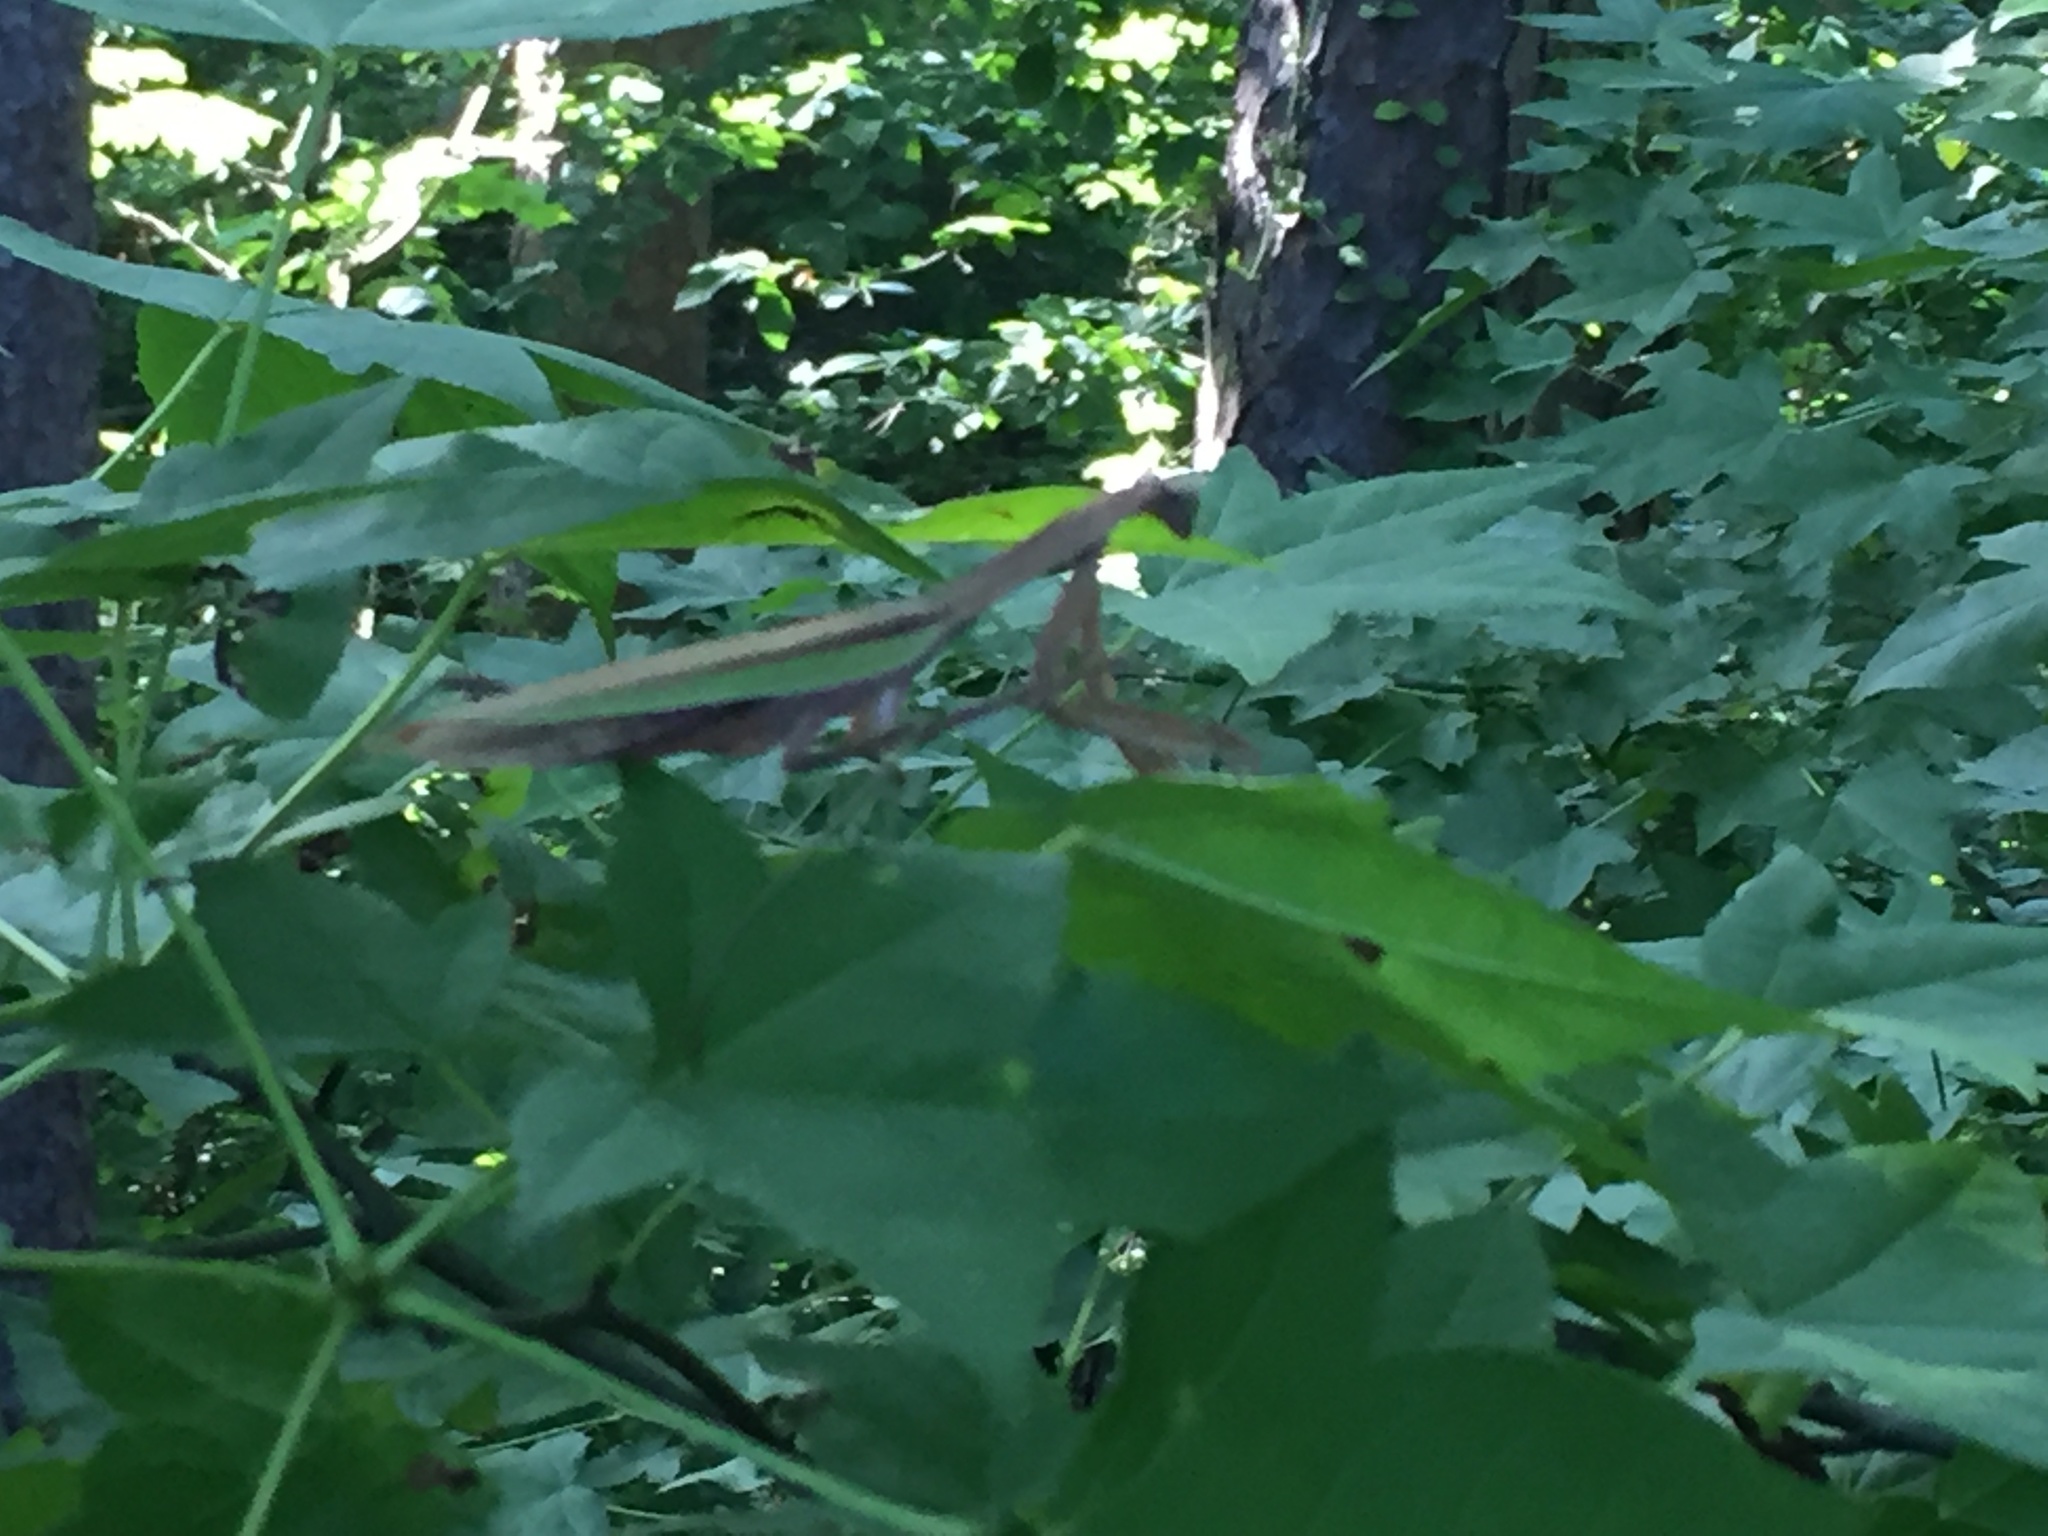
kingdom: Animalia
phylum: Arthropoda
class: Insecta
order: Mantodea
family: Mantidae
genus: Tenodera
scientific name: Tenodera sinensis
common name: Chinese mantis
